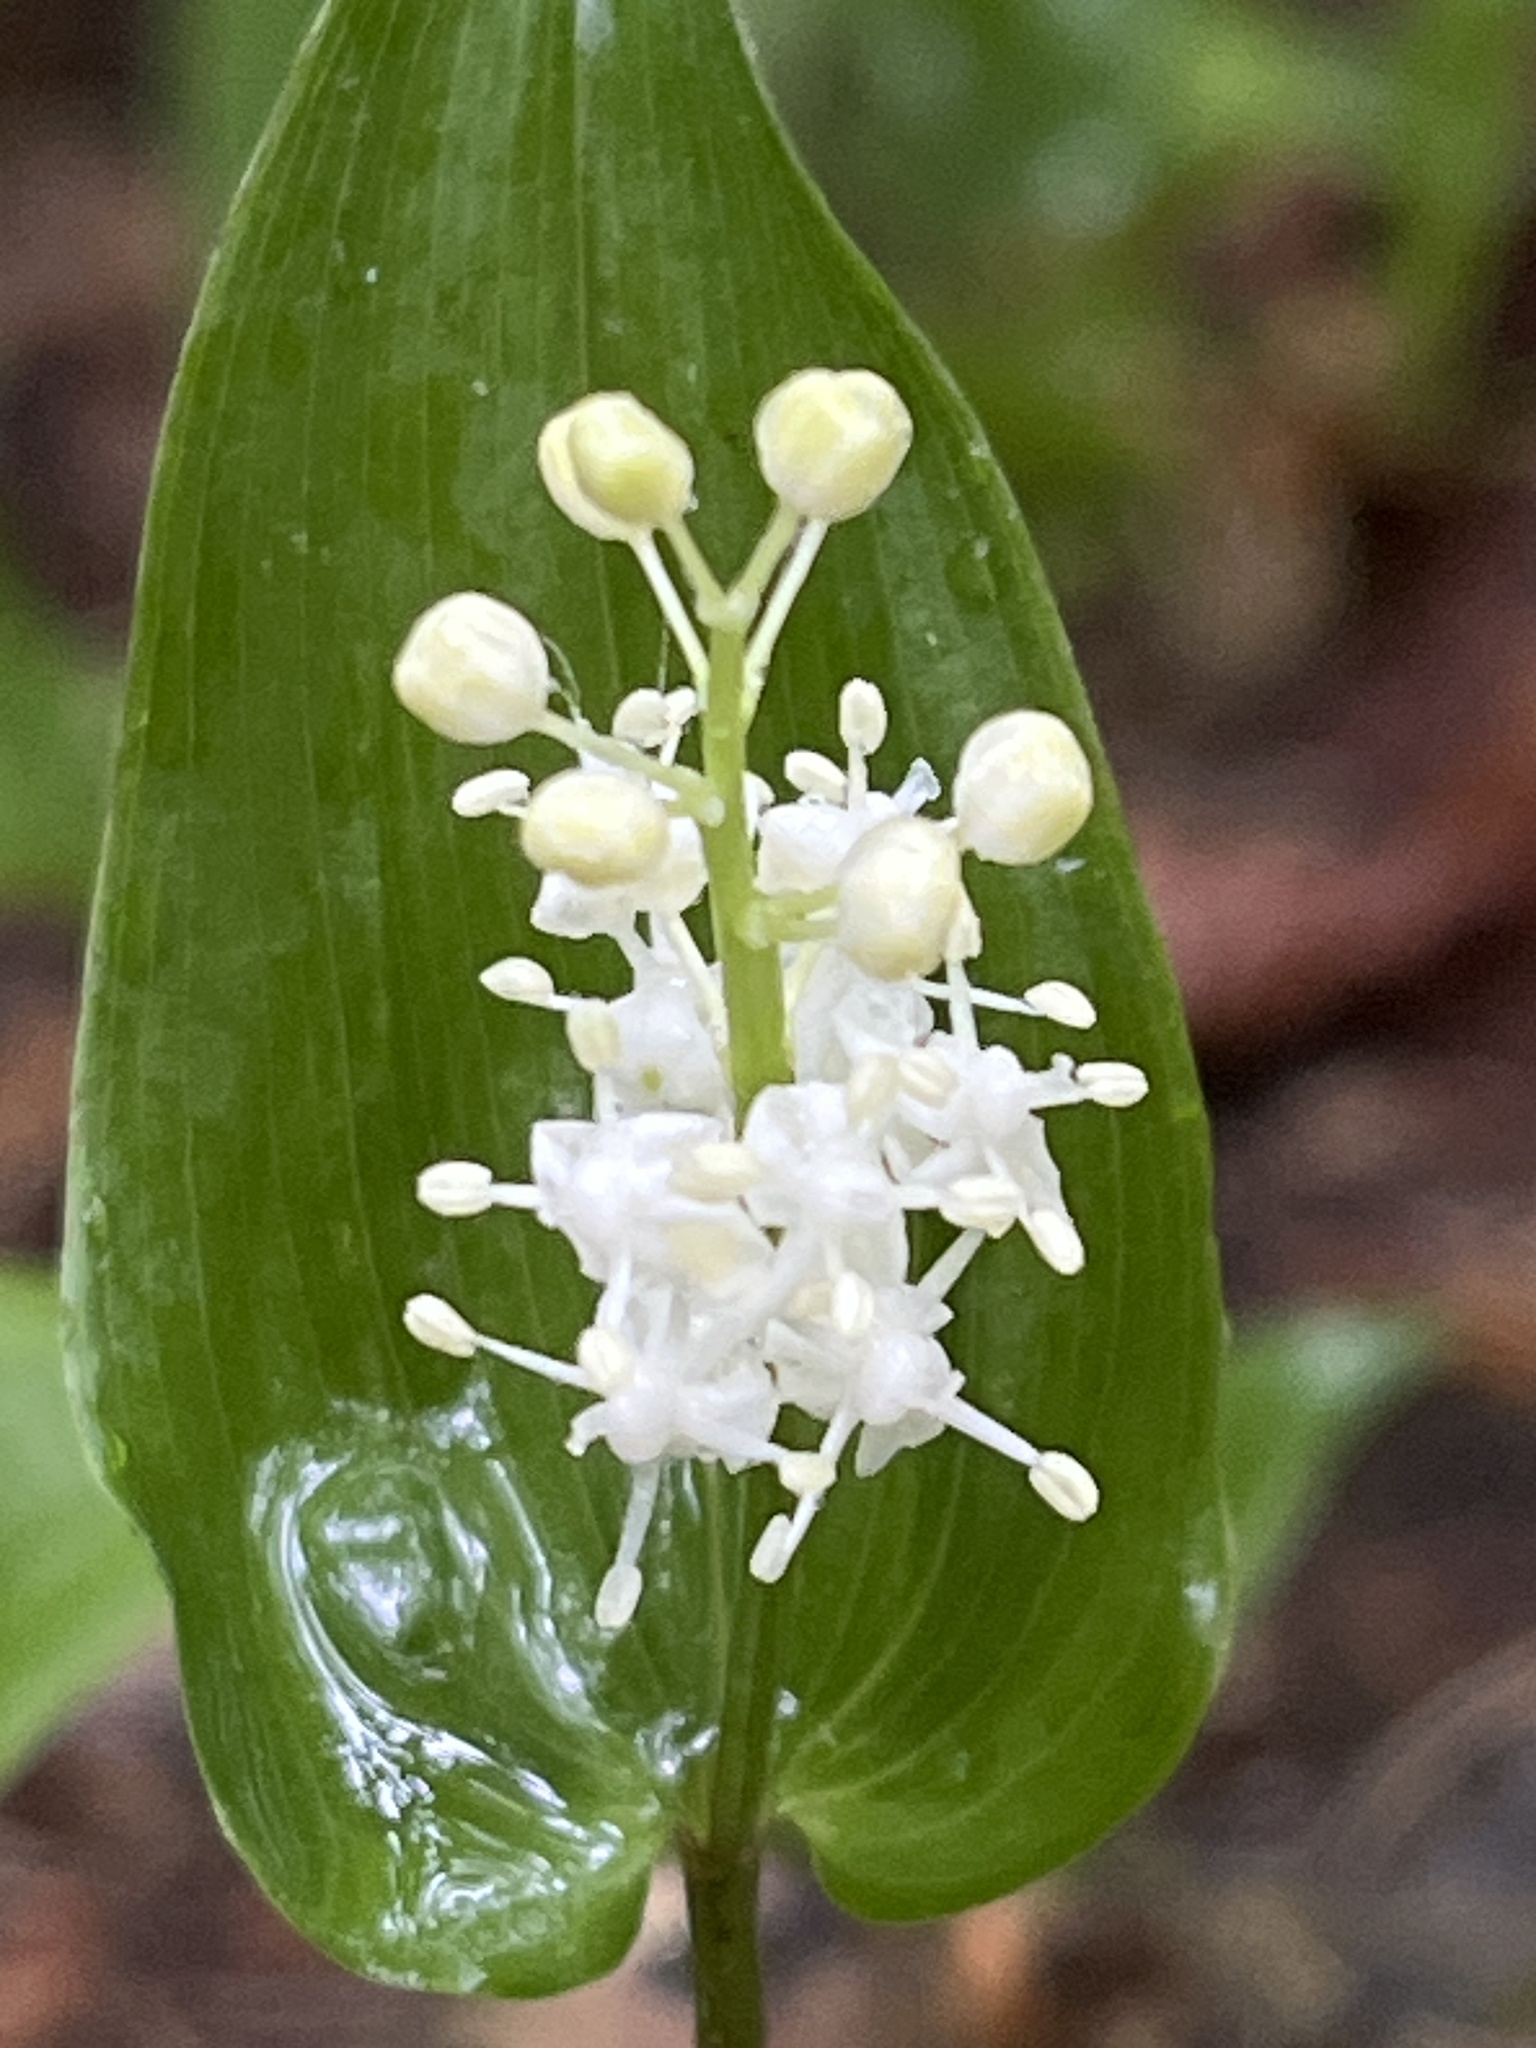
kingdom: Plantae
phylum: Tracheophyta
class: Liliopsida
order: Asparagales
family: Asparagaceae
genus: Maianthemum
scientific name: Maianthemum canadense
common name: False lily-of-the-valley
